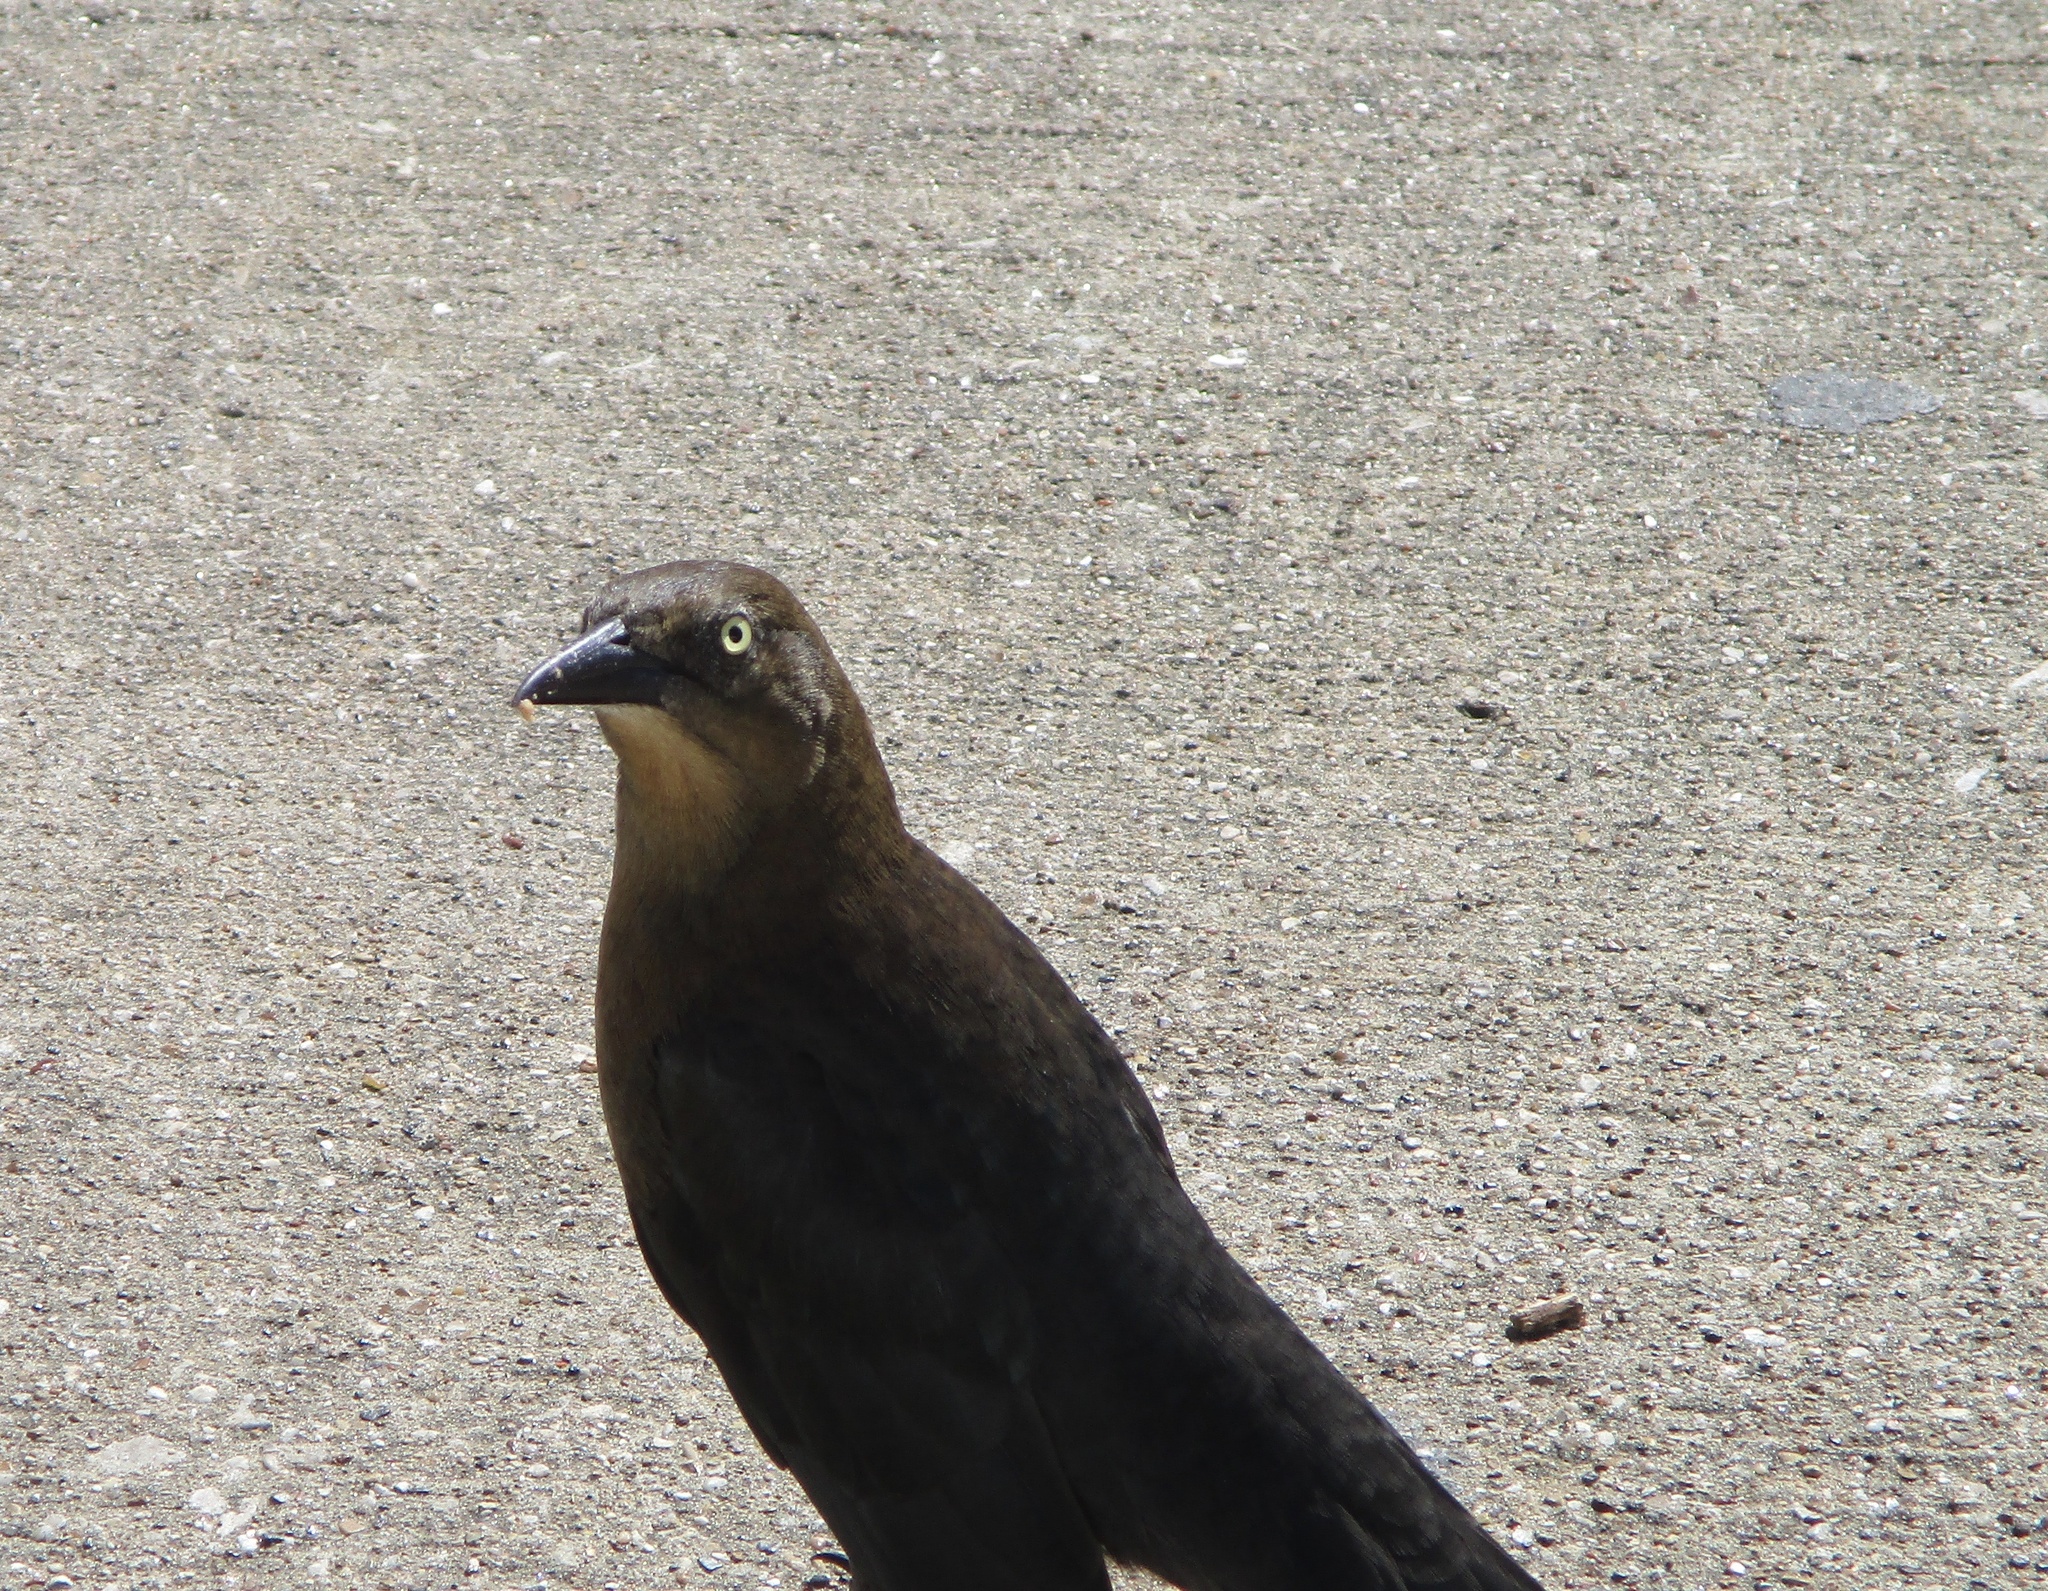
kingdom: Animalia
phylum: Chordata
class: Aves
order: Passeriformes
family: Icteridae
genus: Quiscalus
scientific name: Quiscalus mexicanus
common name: Great-tailed grackle
